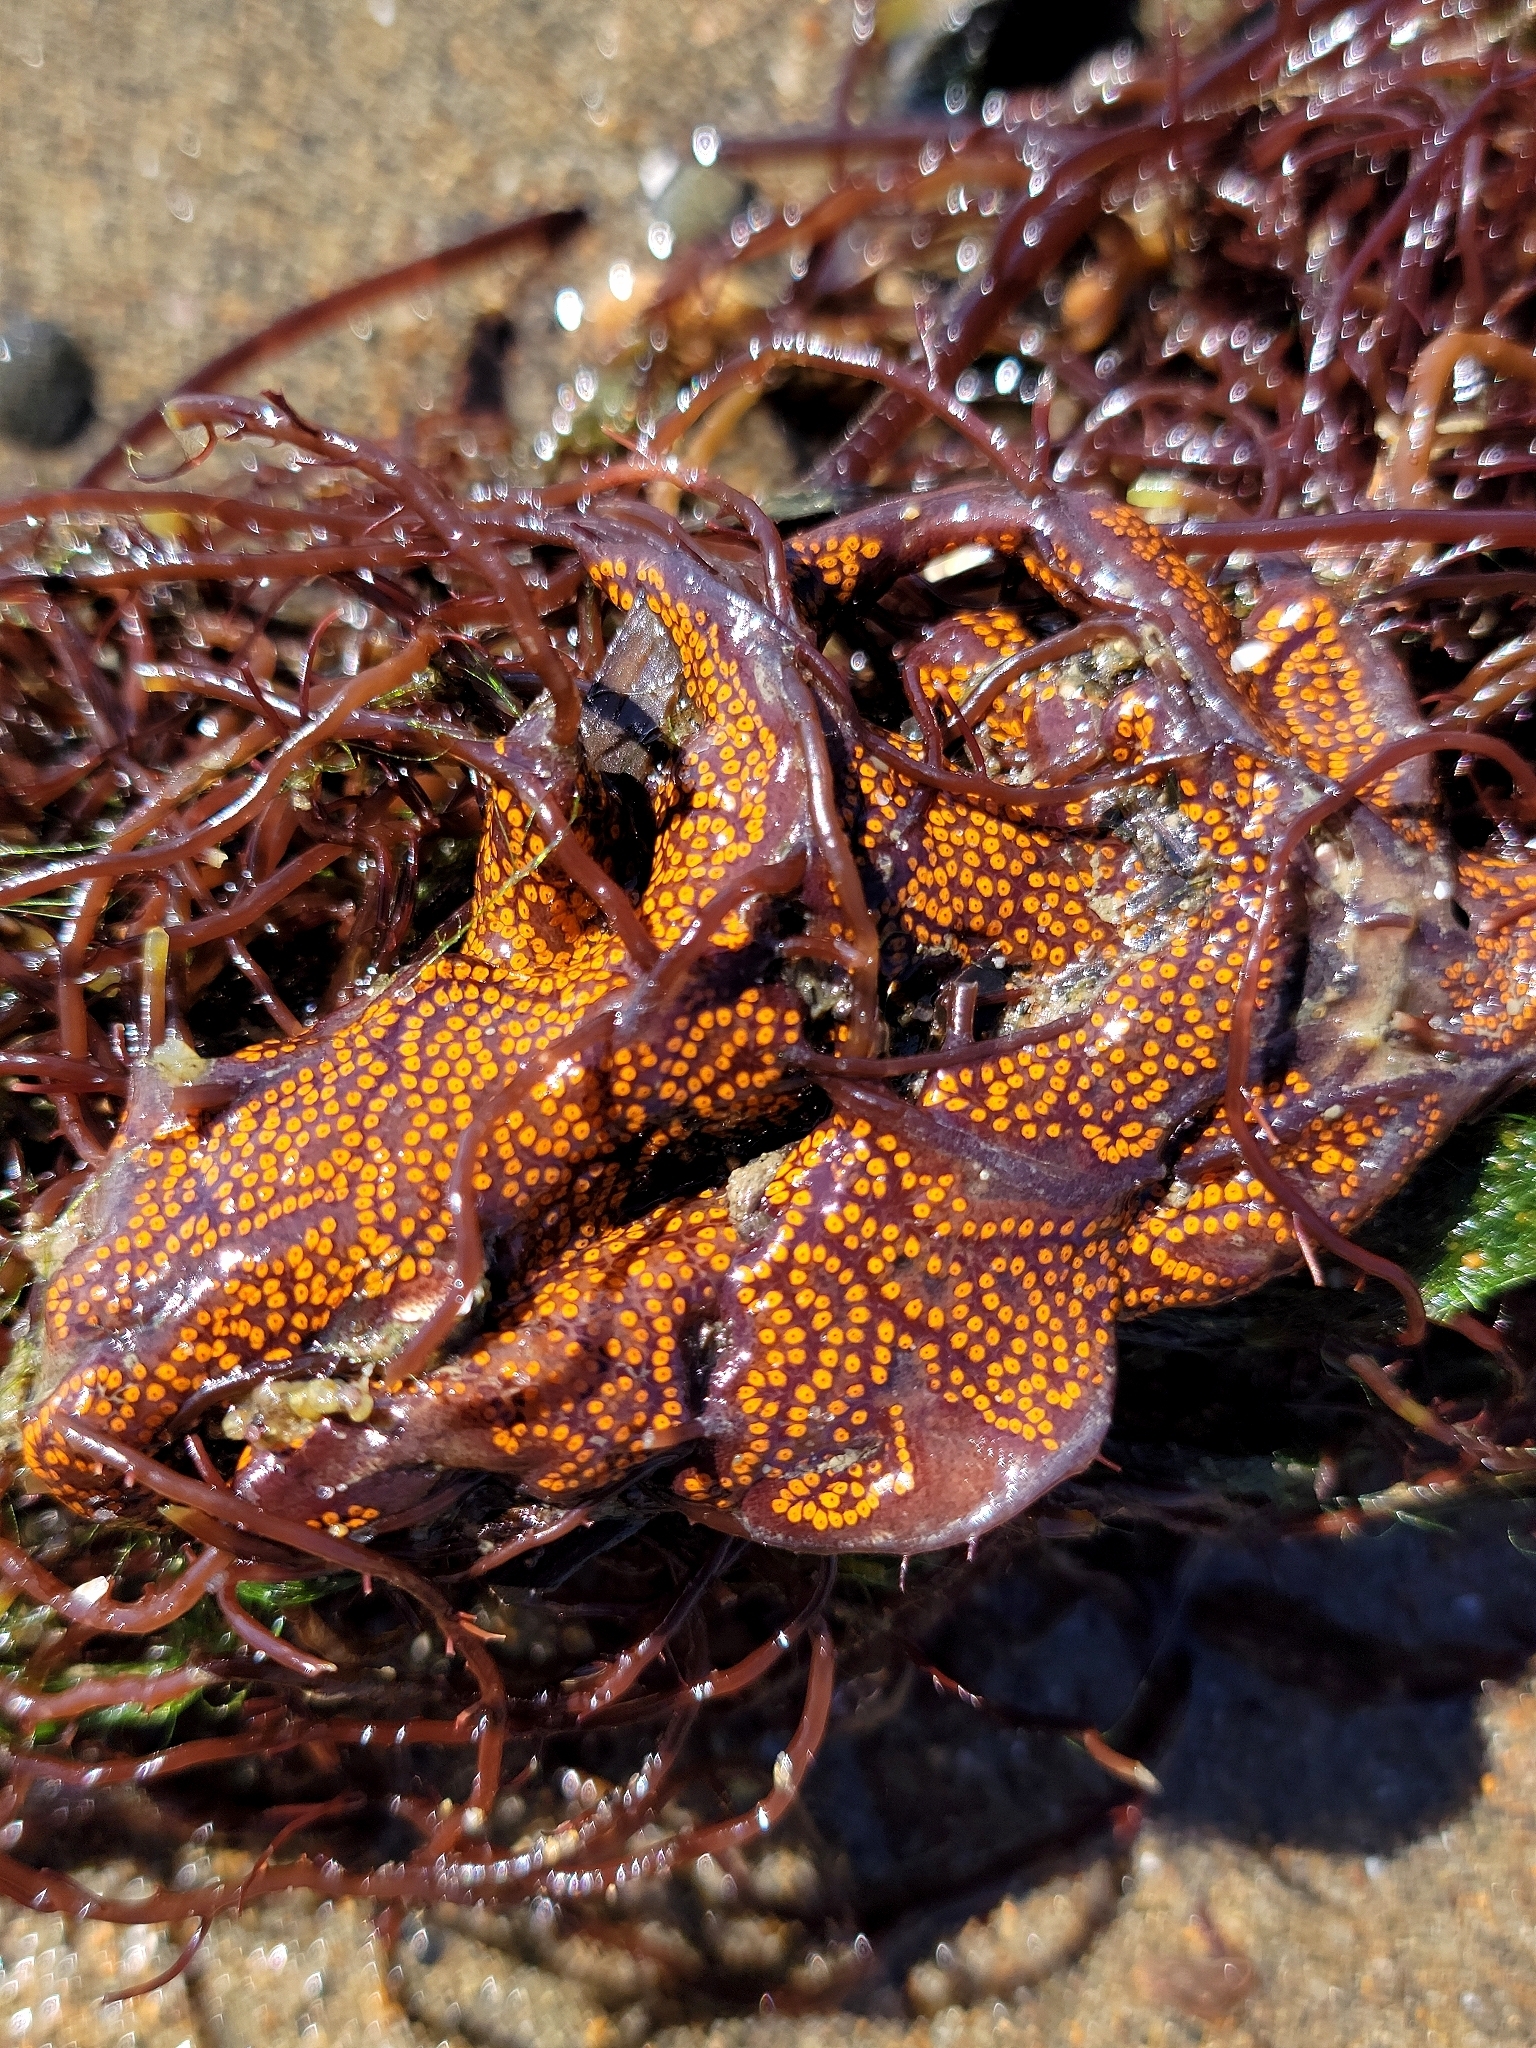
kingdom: Animalia
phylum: Chordata
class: Ascidiacea
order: Stolidobranchia
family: Styelidae
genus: Botrylloides
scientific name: Botrylloides diegensis
